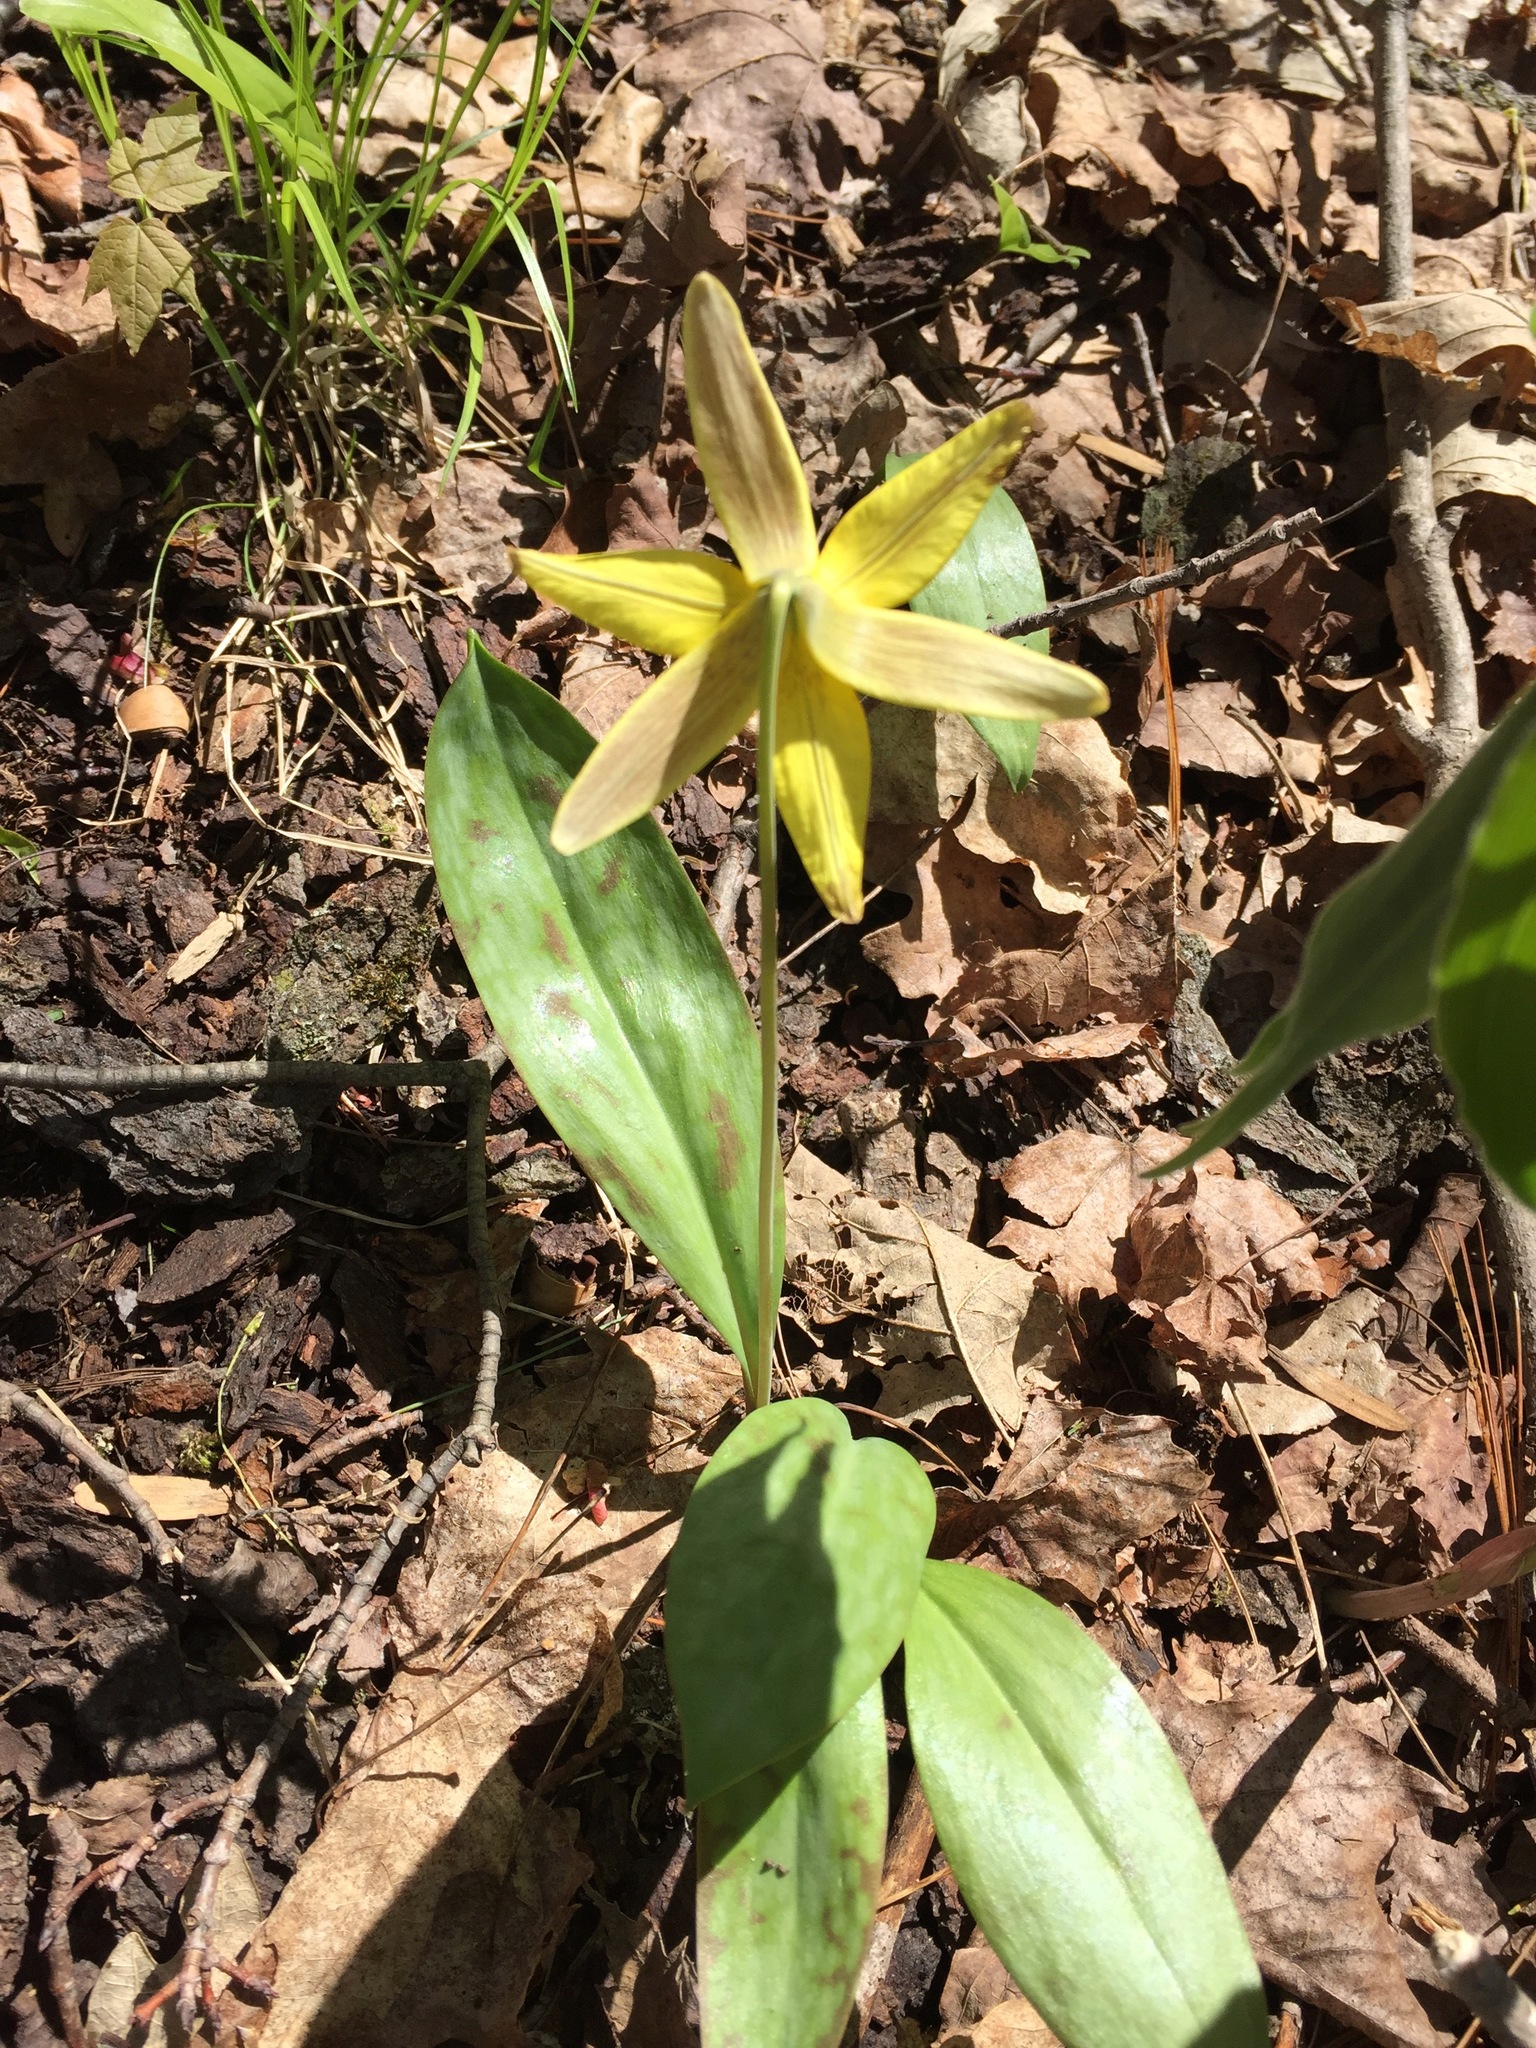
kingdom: Plantae
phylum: Tracheophyta
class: Liliopsida
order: Liliales
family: Liliaceae
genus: Erythronium
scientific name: Erythronium americanum
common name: Yellow adder's-tongue
